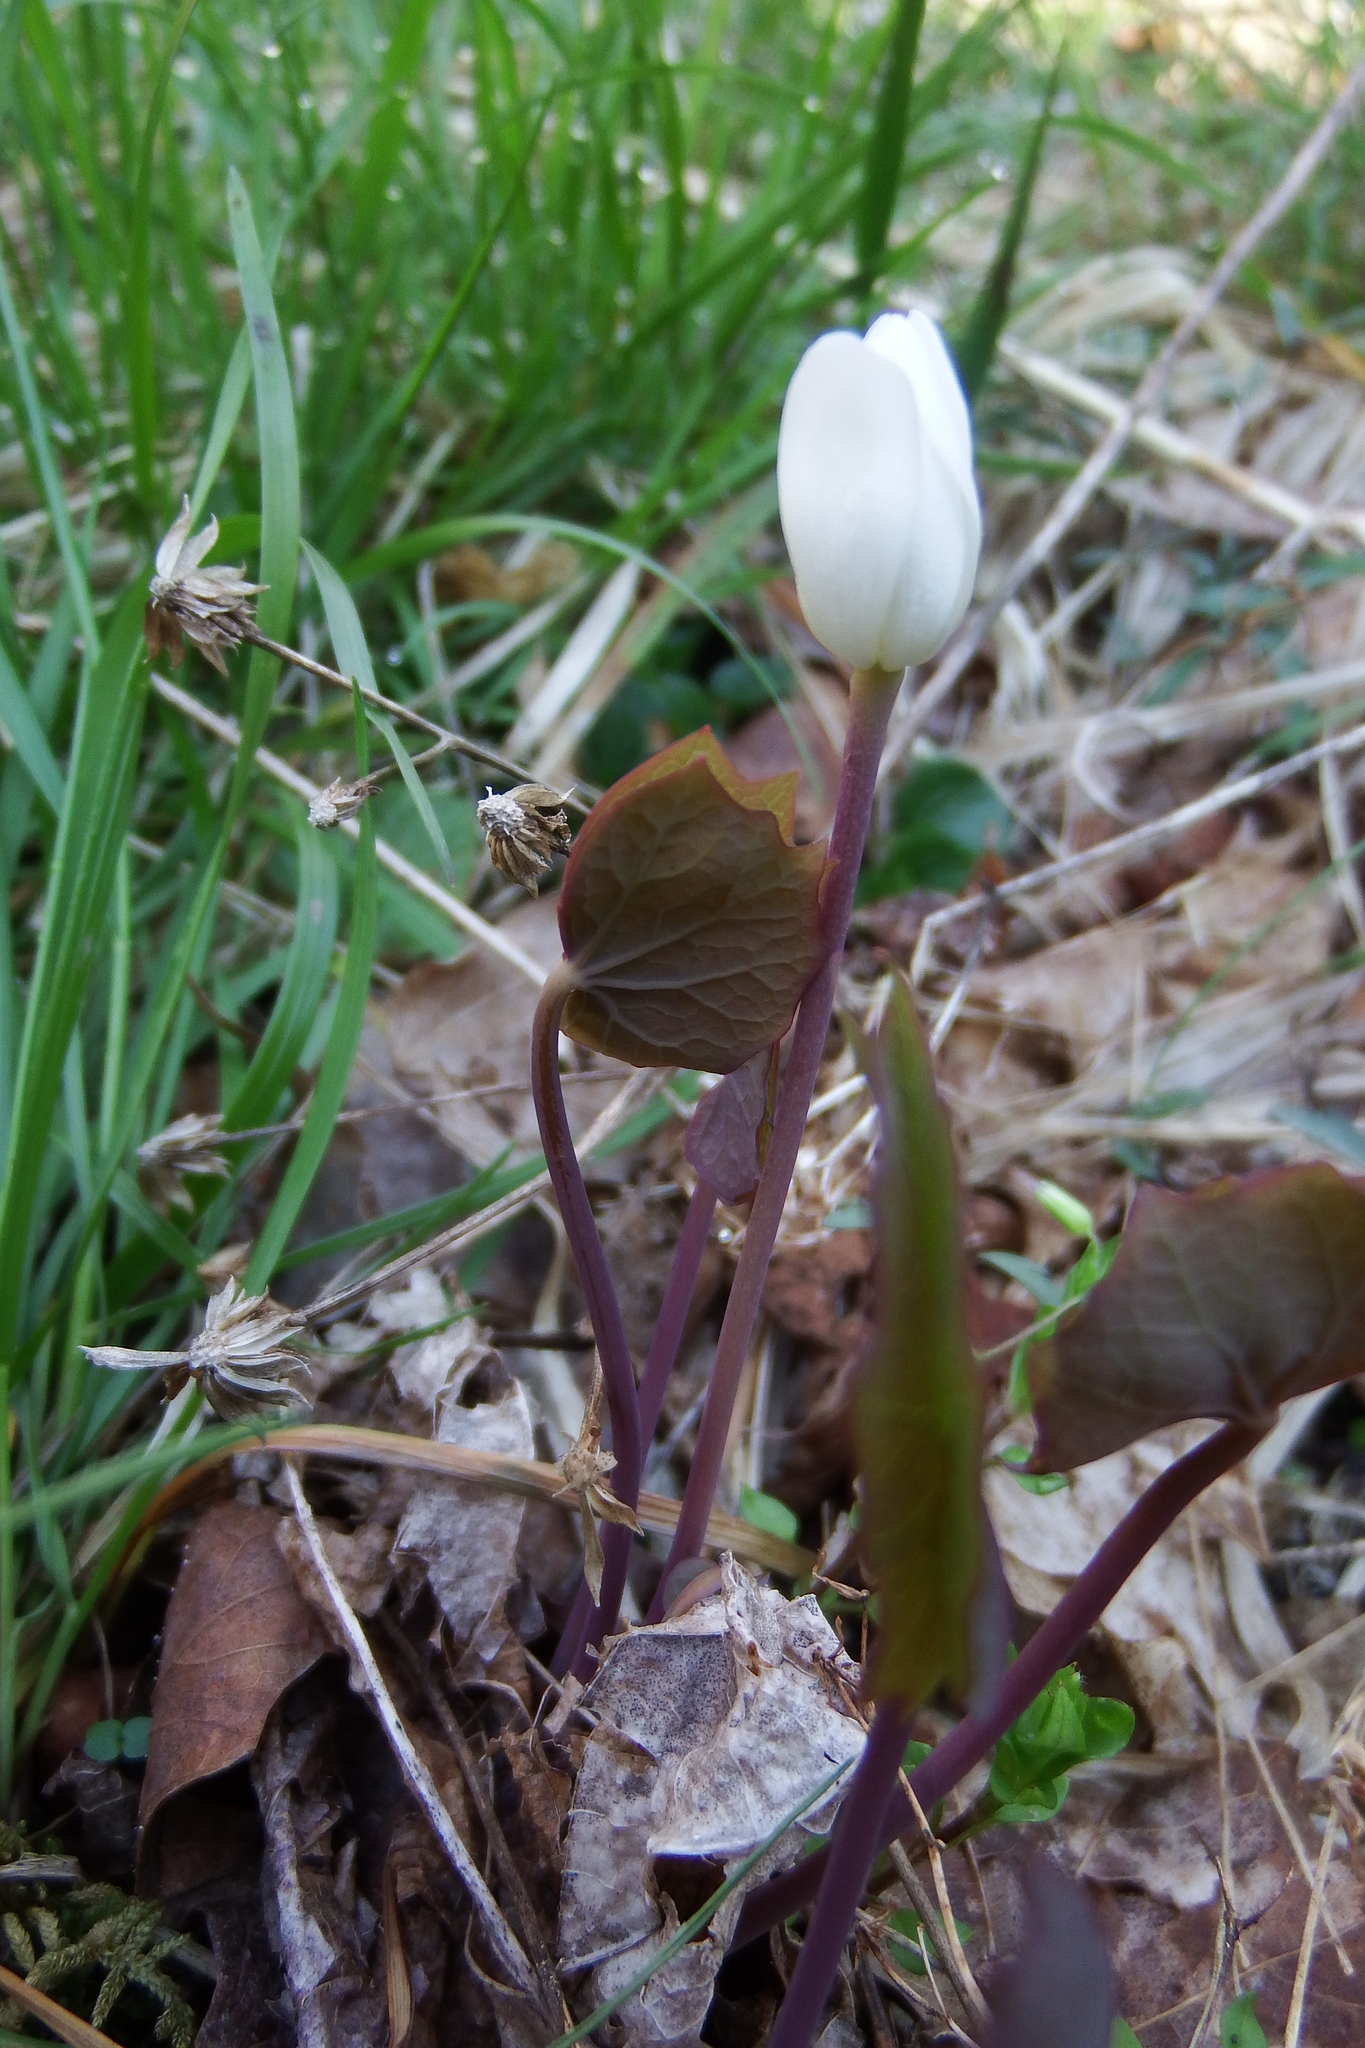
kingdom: Plantae
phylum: Tracheophyta
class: Magnoliopsida
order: Ranunculales
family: Berberidaceae
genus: Jeffersonia
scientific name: Jeffersonia diphylla
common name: Rheumatism-root
